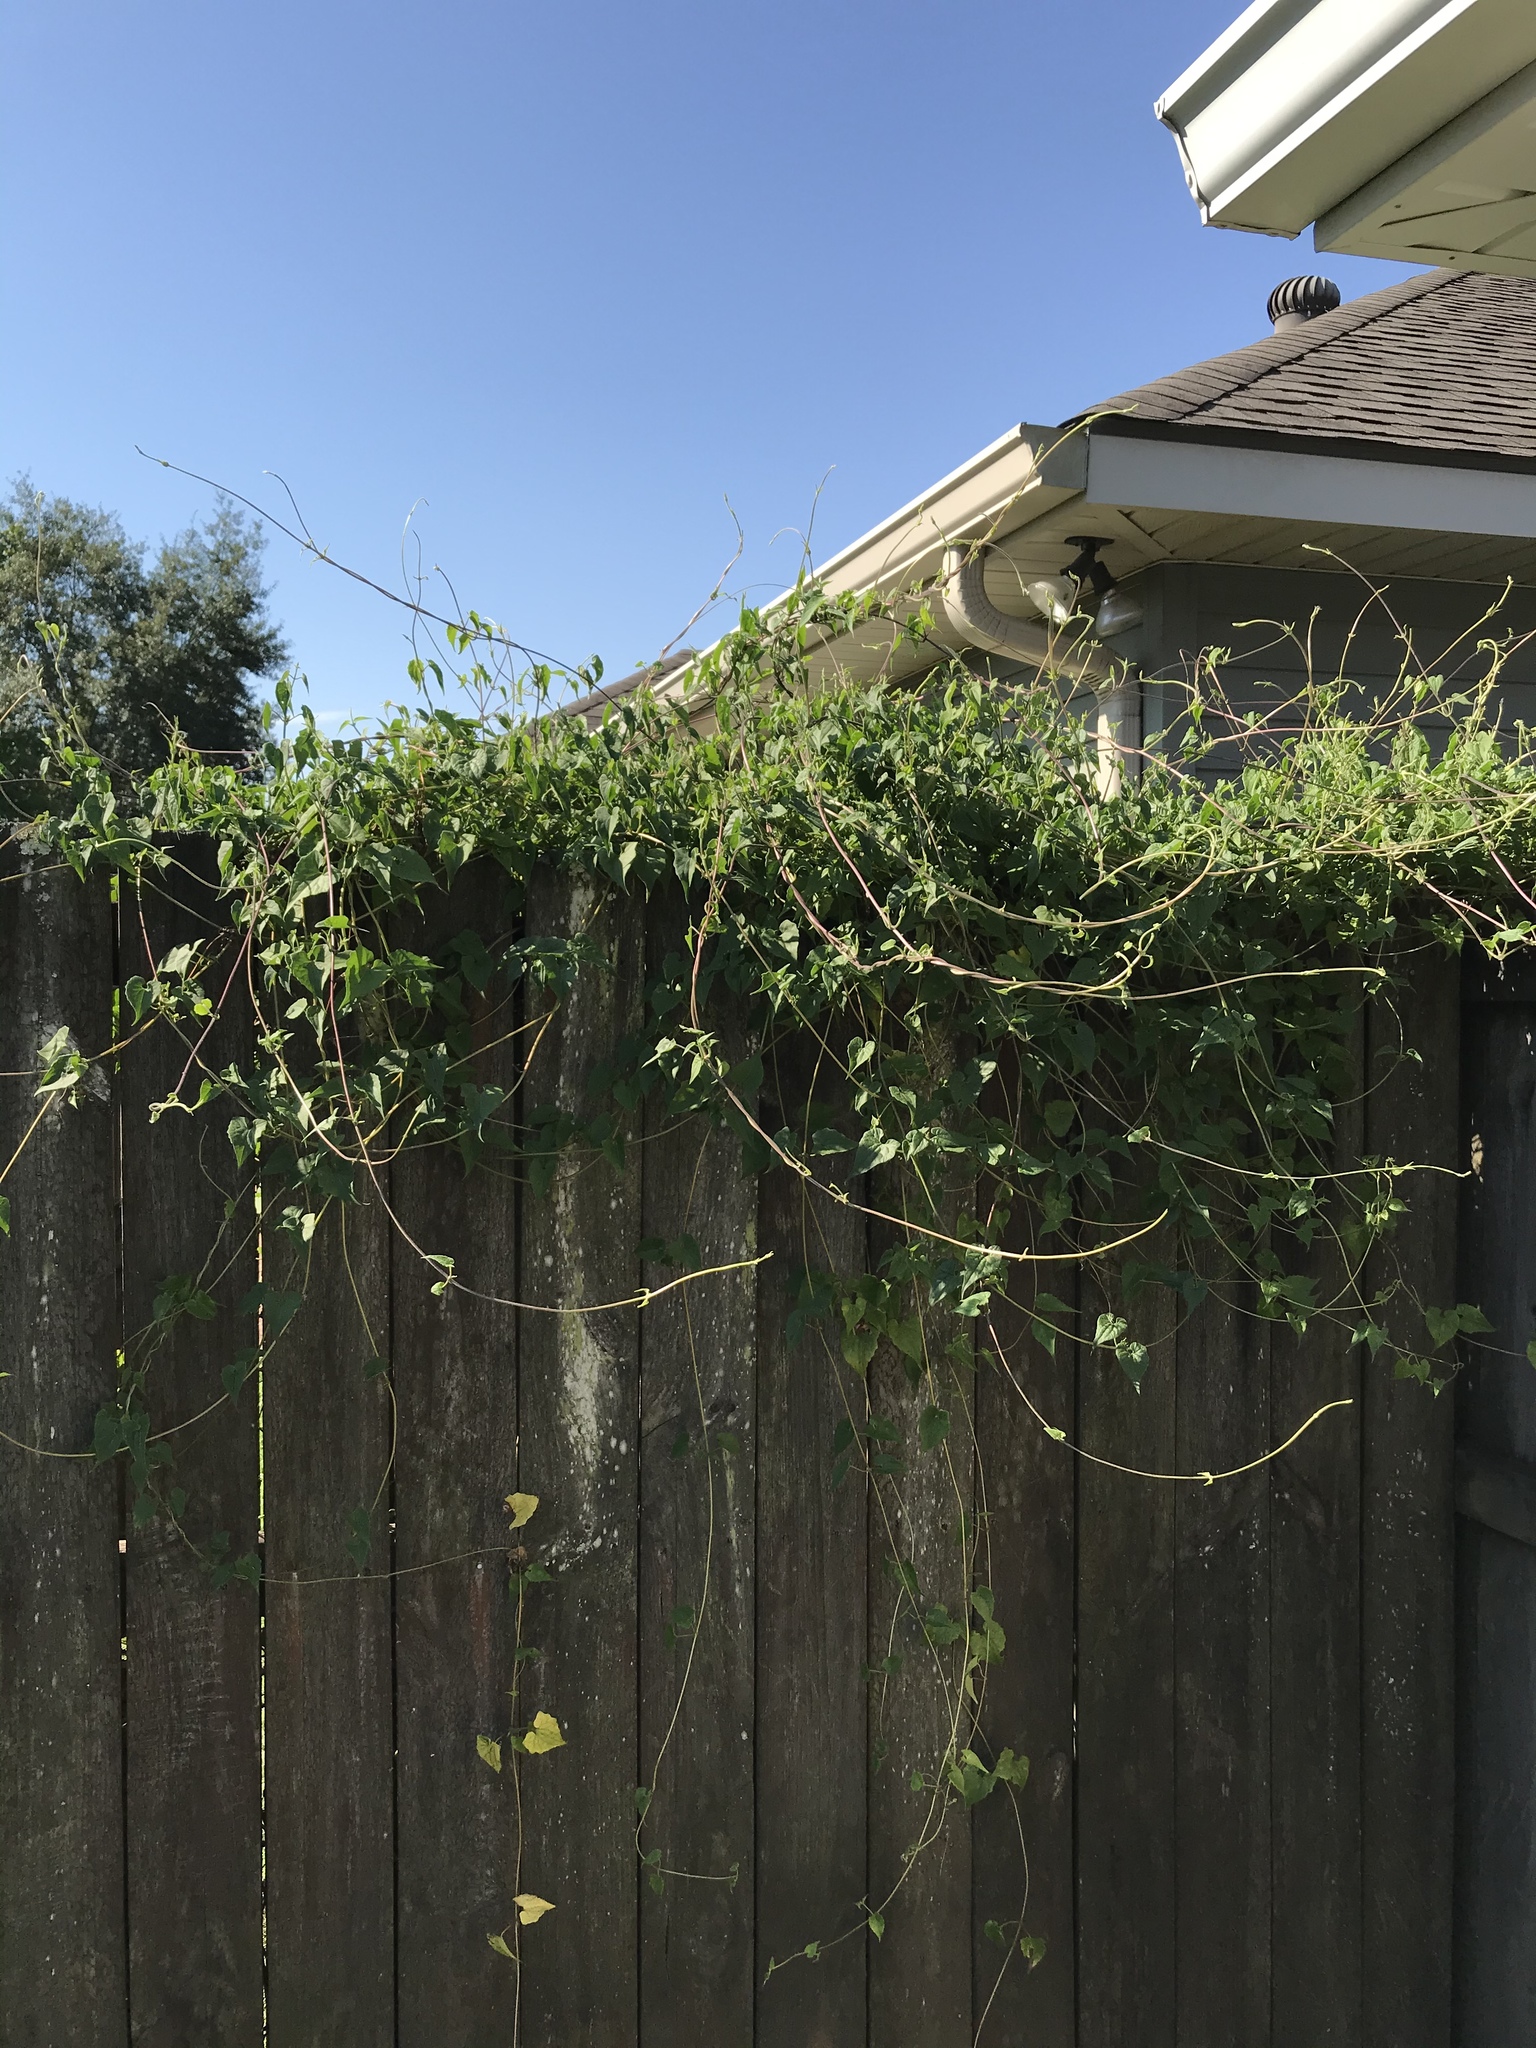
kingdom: Plantae
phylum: Tracheophyta
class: Magnoliopsida
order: Asterales
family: Asteraceae
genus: Mikania
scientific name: Mikania scandens
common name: Climbing hempvine
